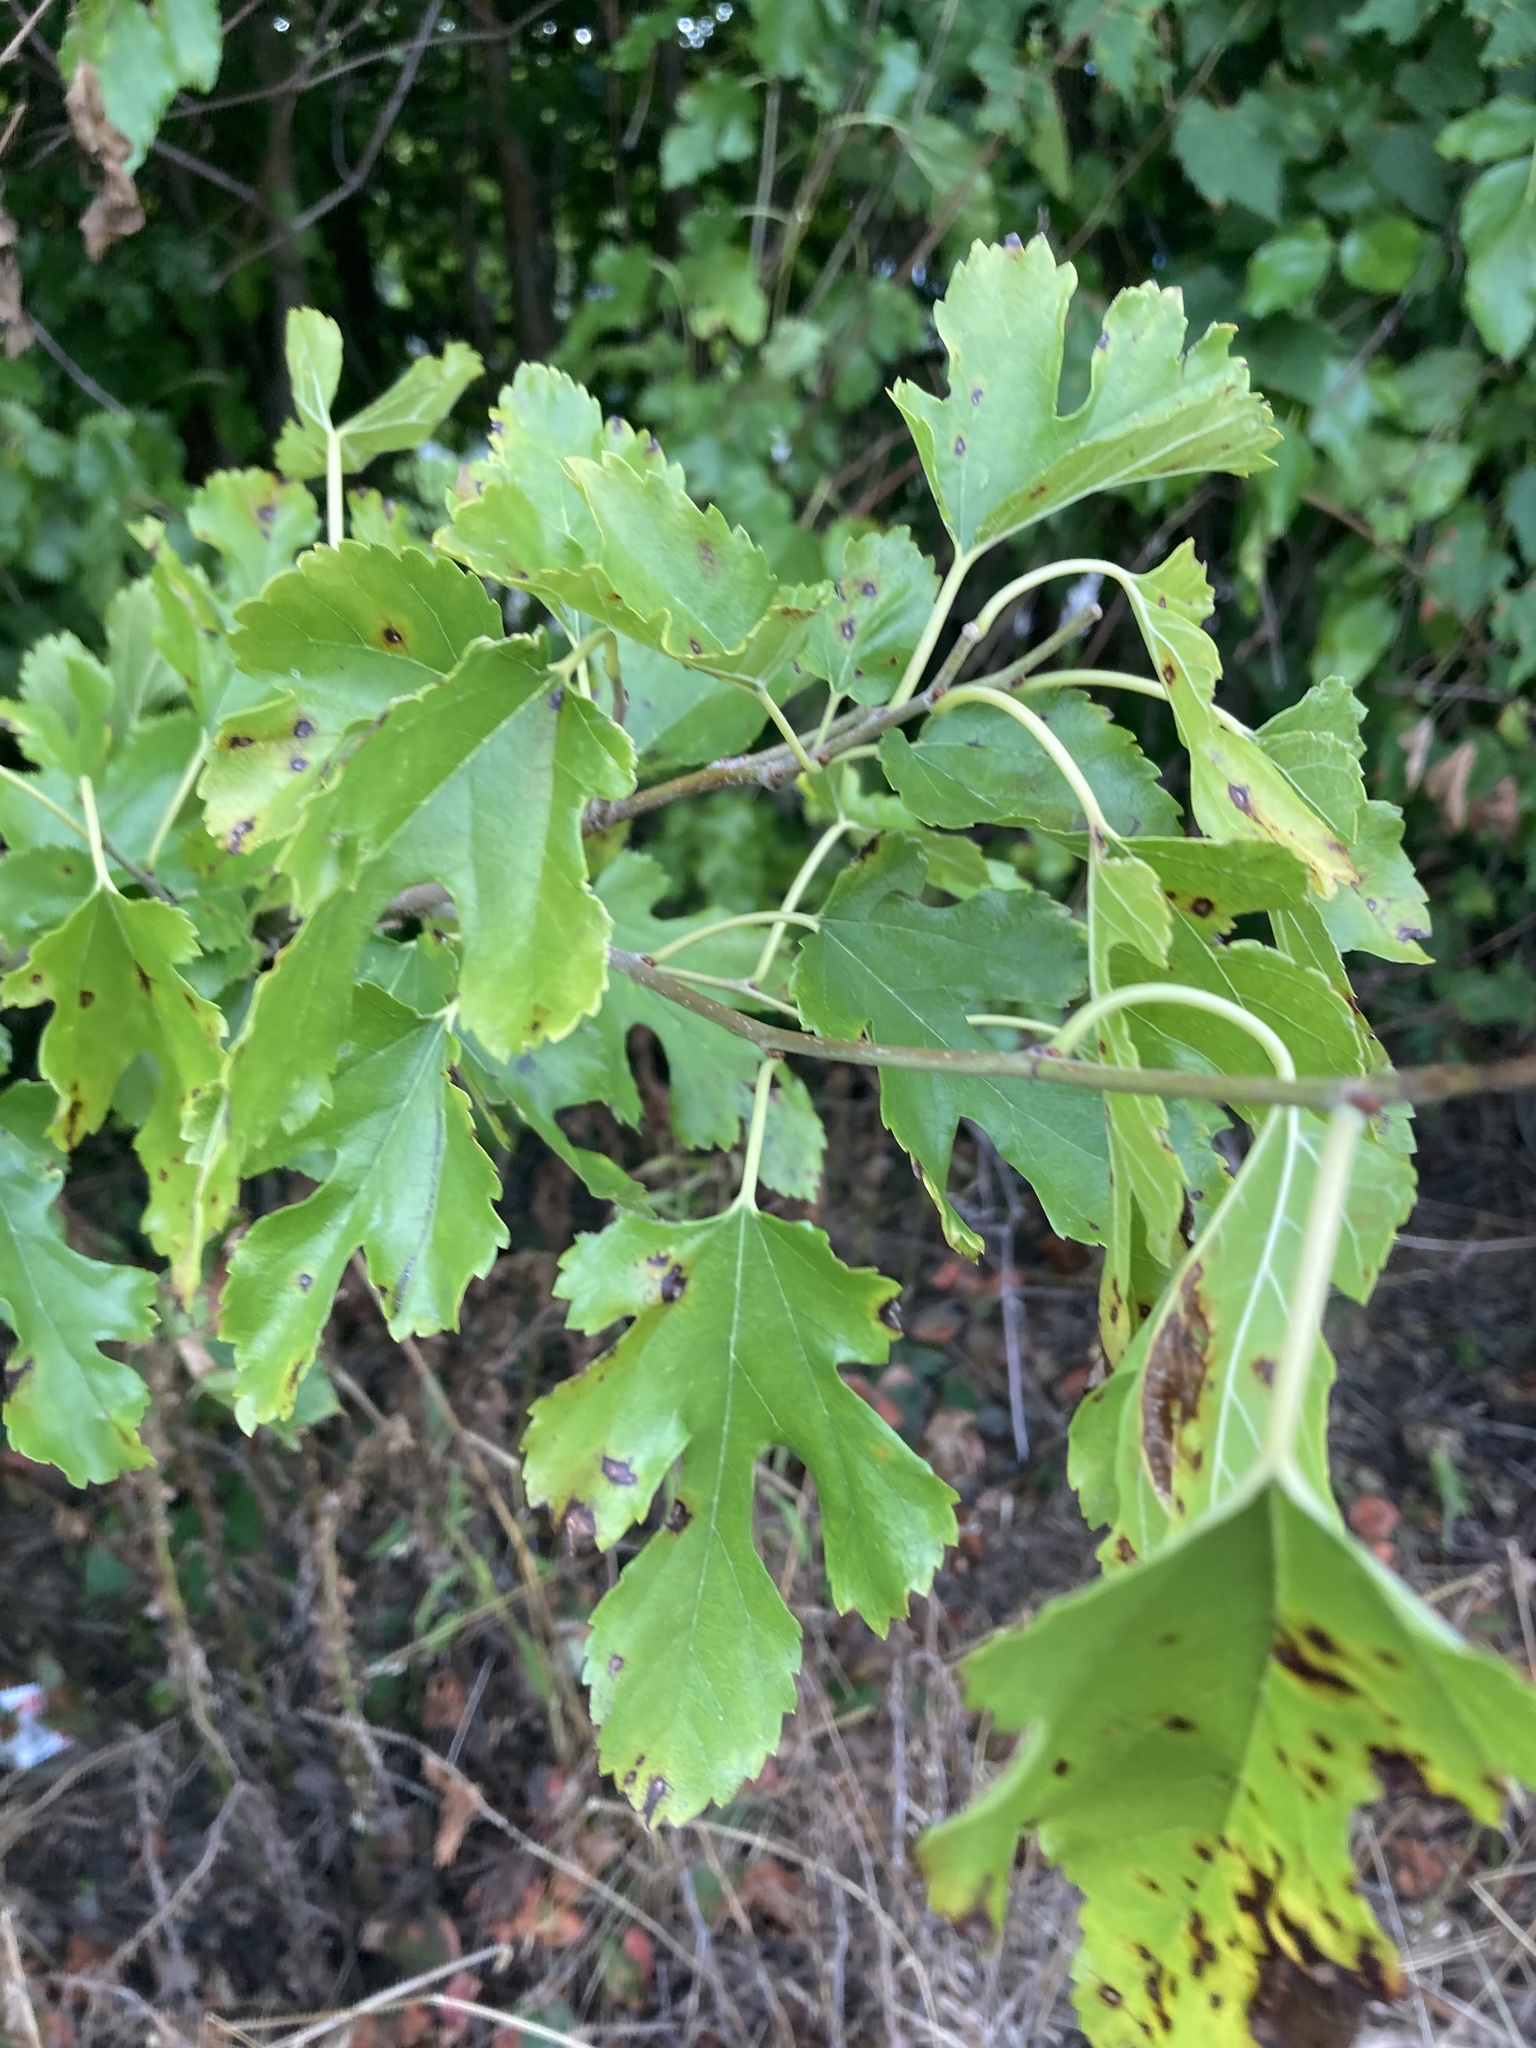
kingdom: Plantae
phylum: Tracheophyta
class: Magnoliopsida
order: Rosales
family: Moraceae
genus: Morus
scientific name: Morus alba
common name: White mulberry
